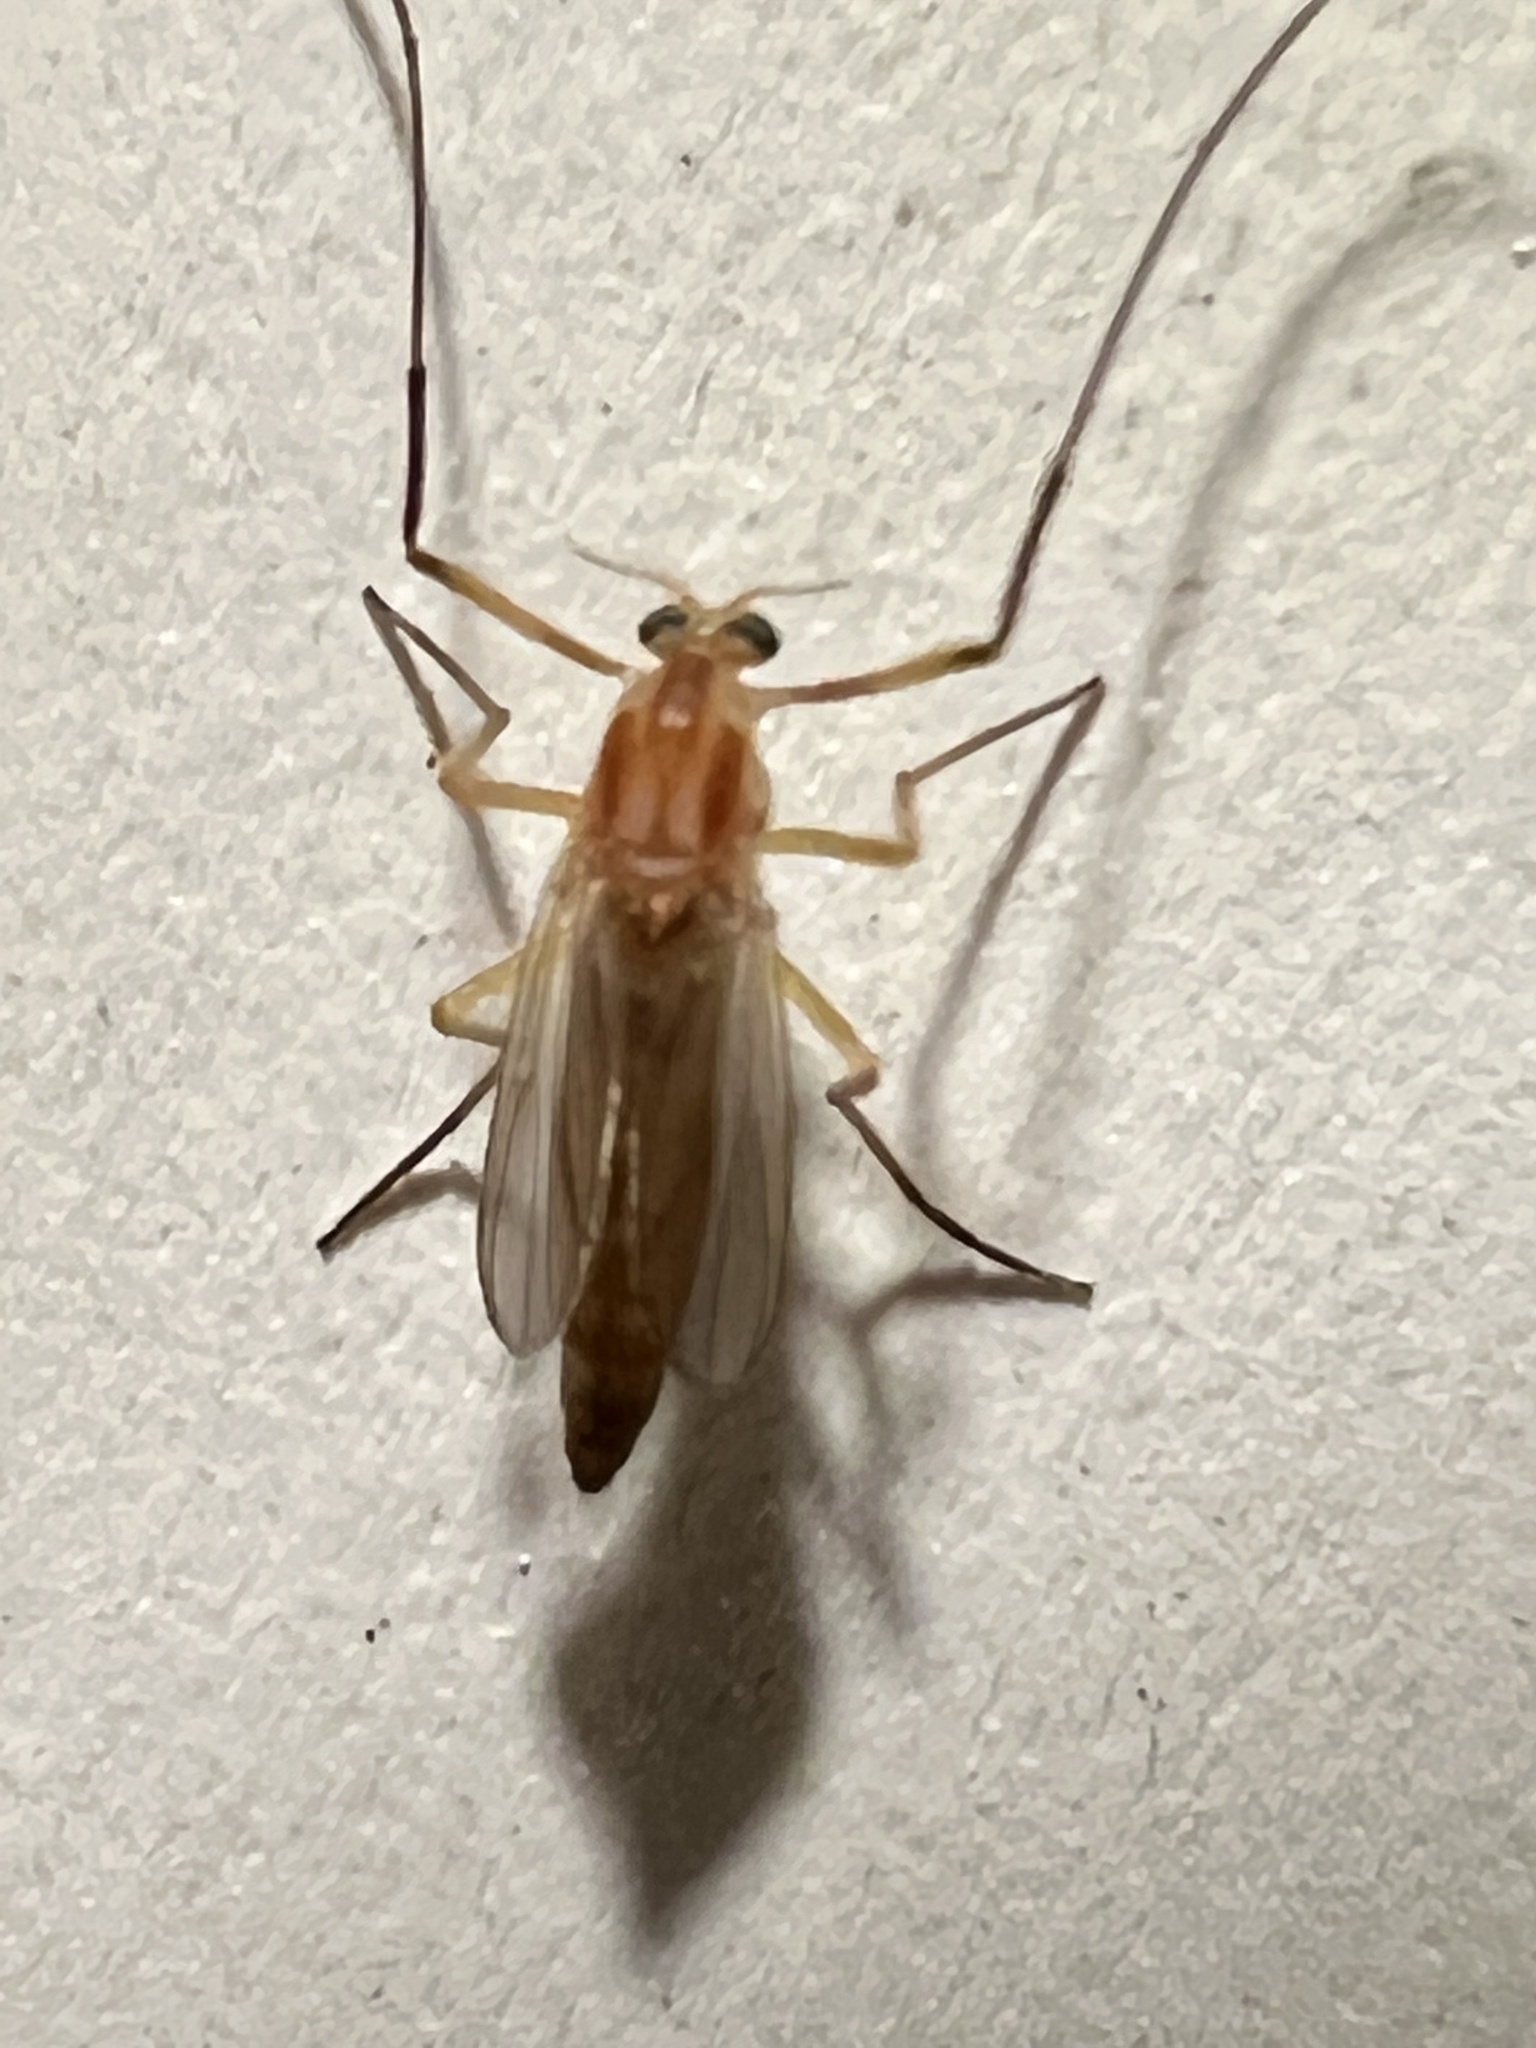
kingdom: Animalia
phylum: Arthropoda
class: Insecta
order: Diptera
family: Chironomidae
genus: Chironomus
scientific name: Chironomus ochreatus
